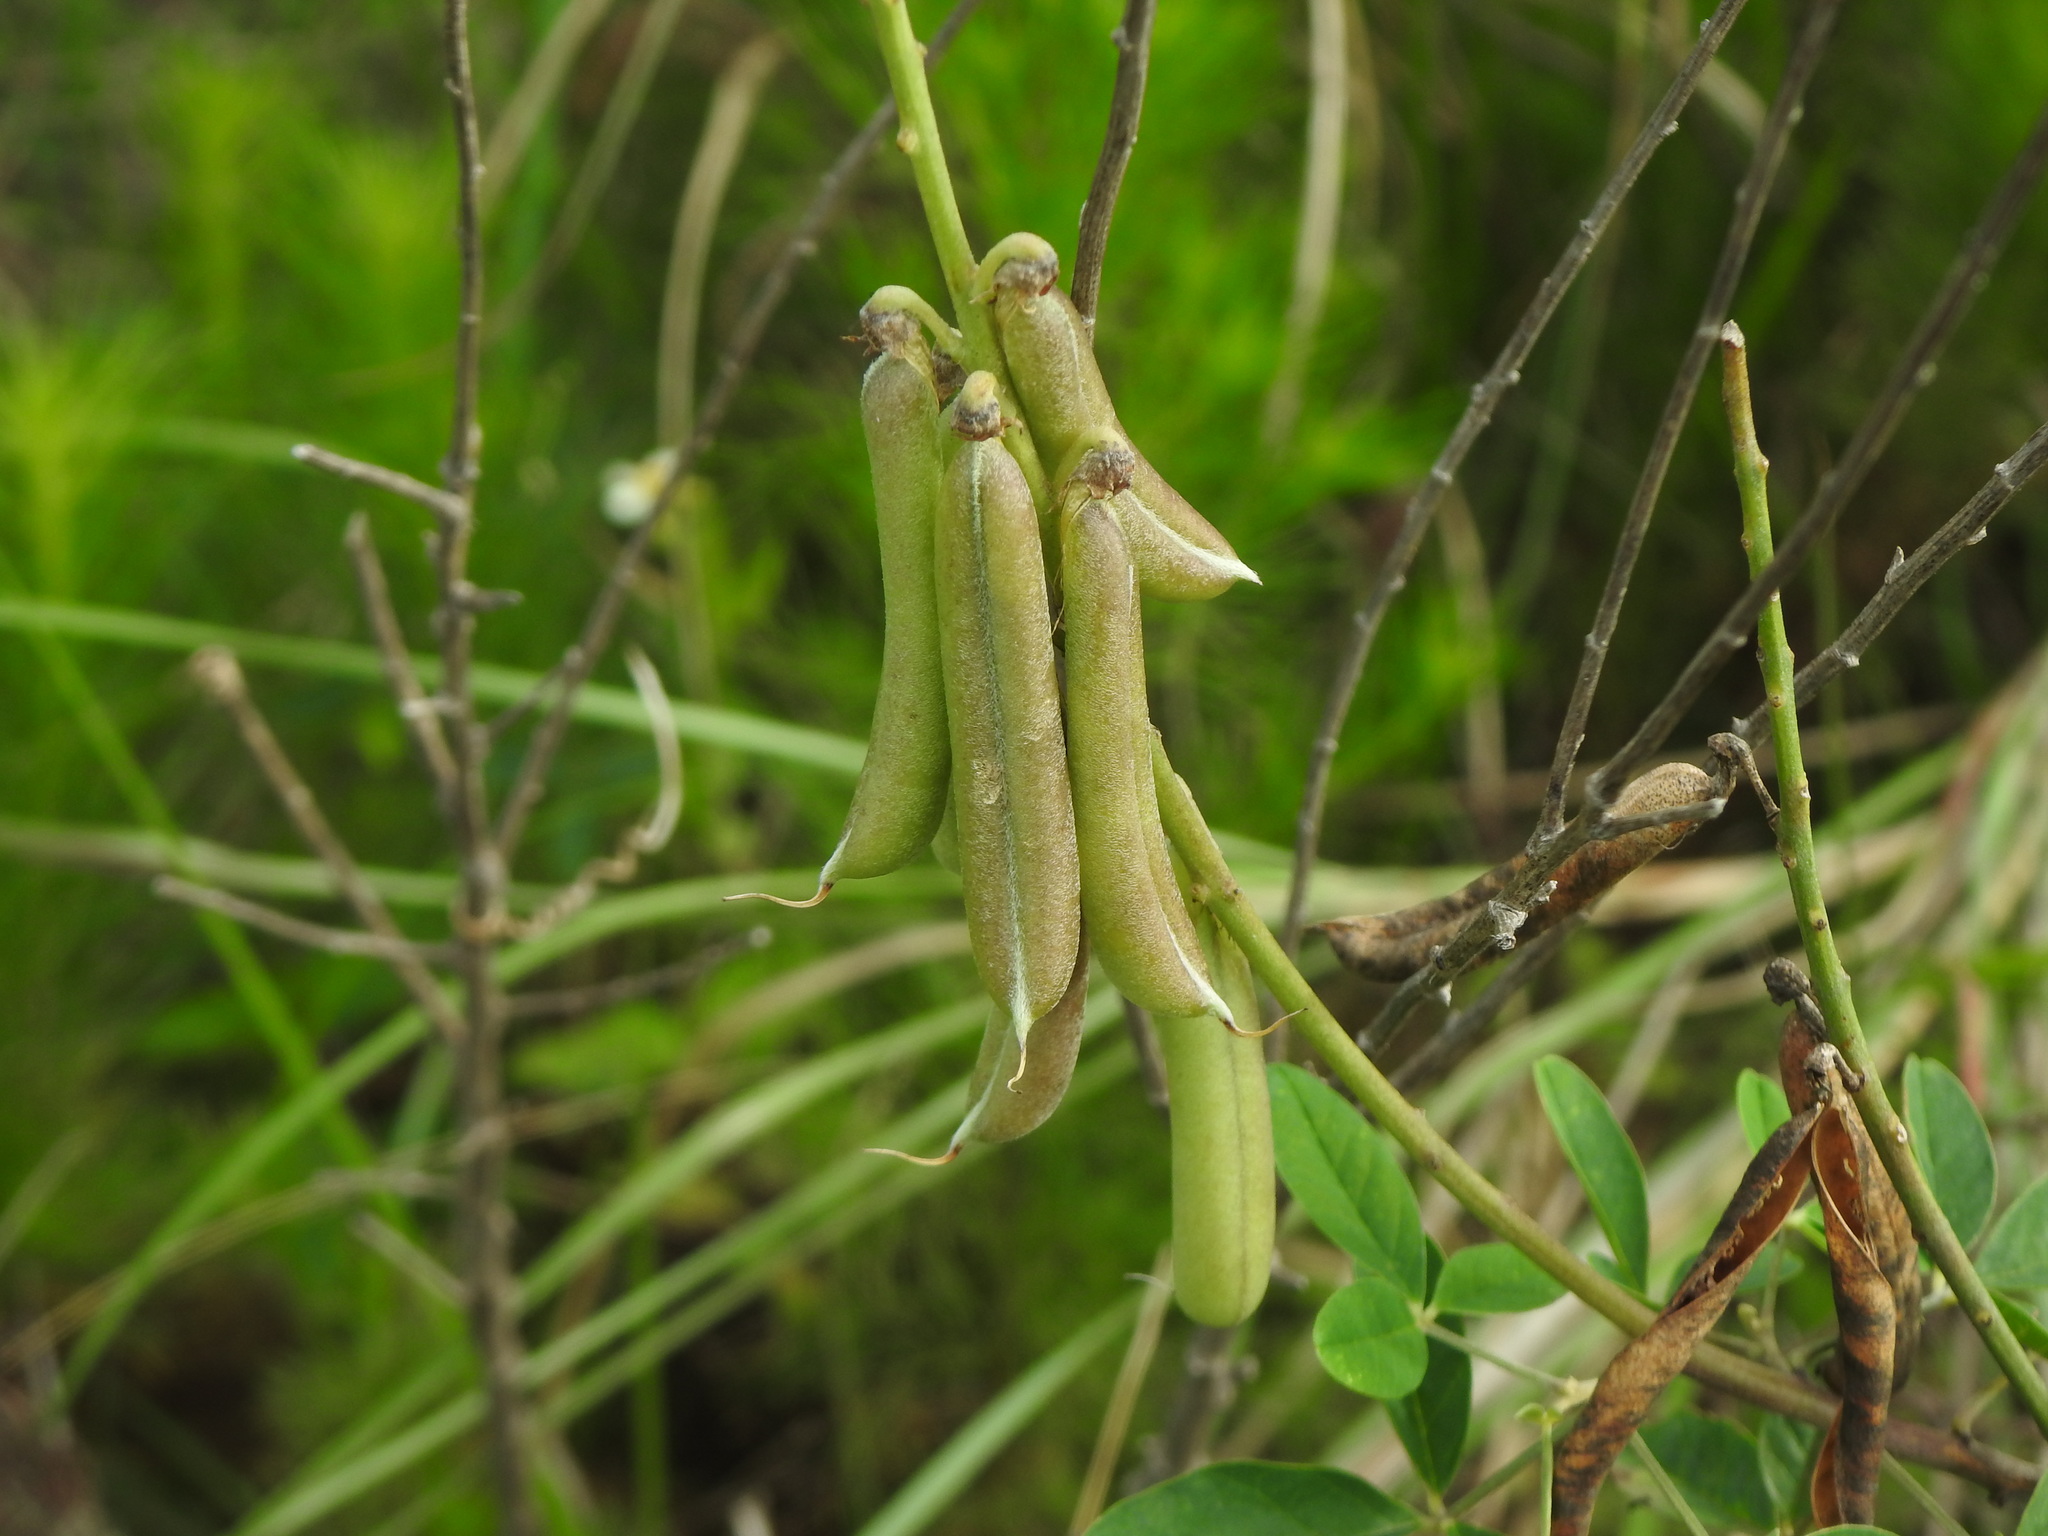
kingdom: Plantae
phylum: Tracheophyta
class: Magnoliopsida
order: Fabales
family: Fabaceae
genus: Crotalaria
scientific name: Crotalaria pallida
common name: Smooth rattlebox
